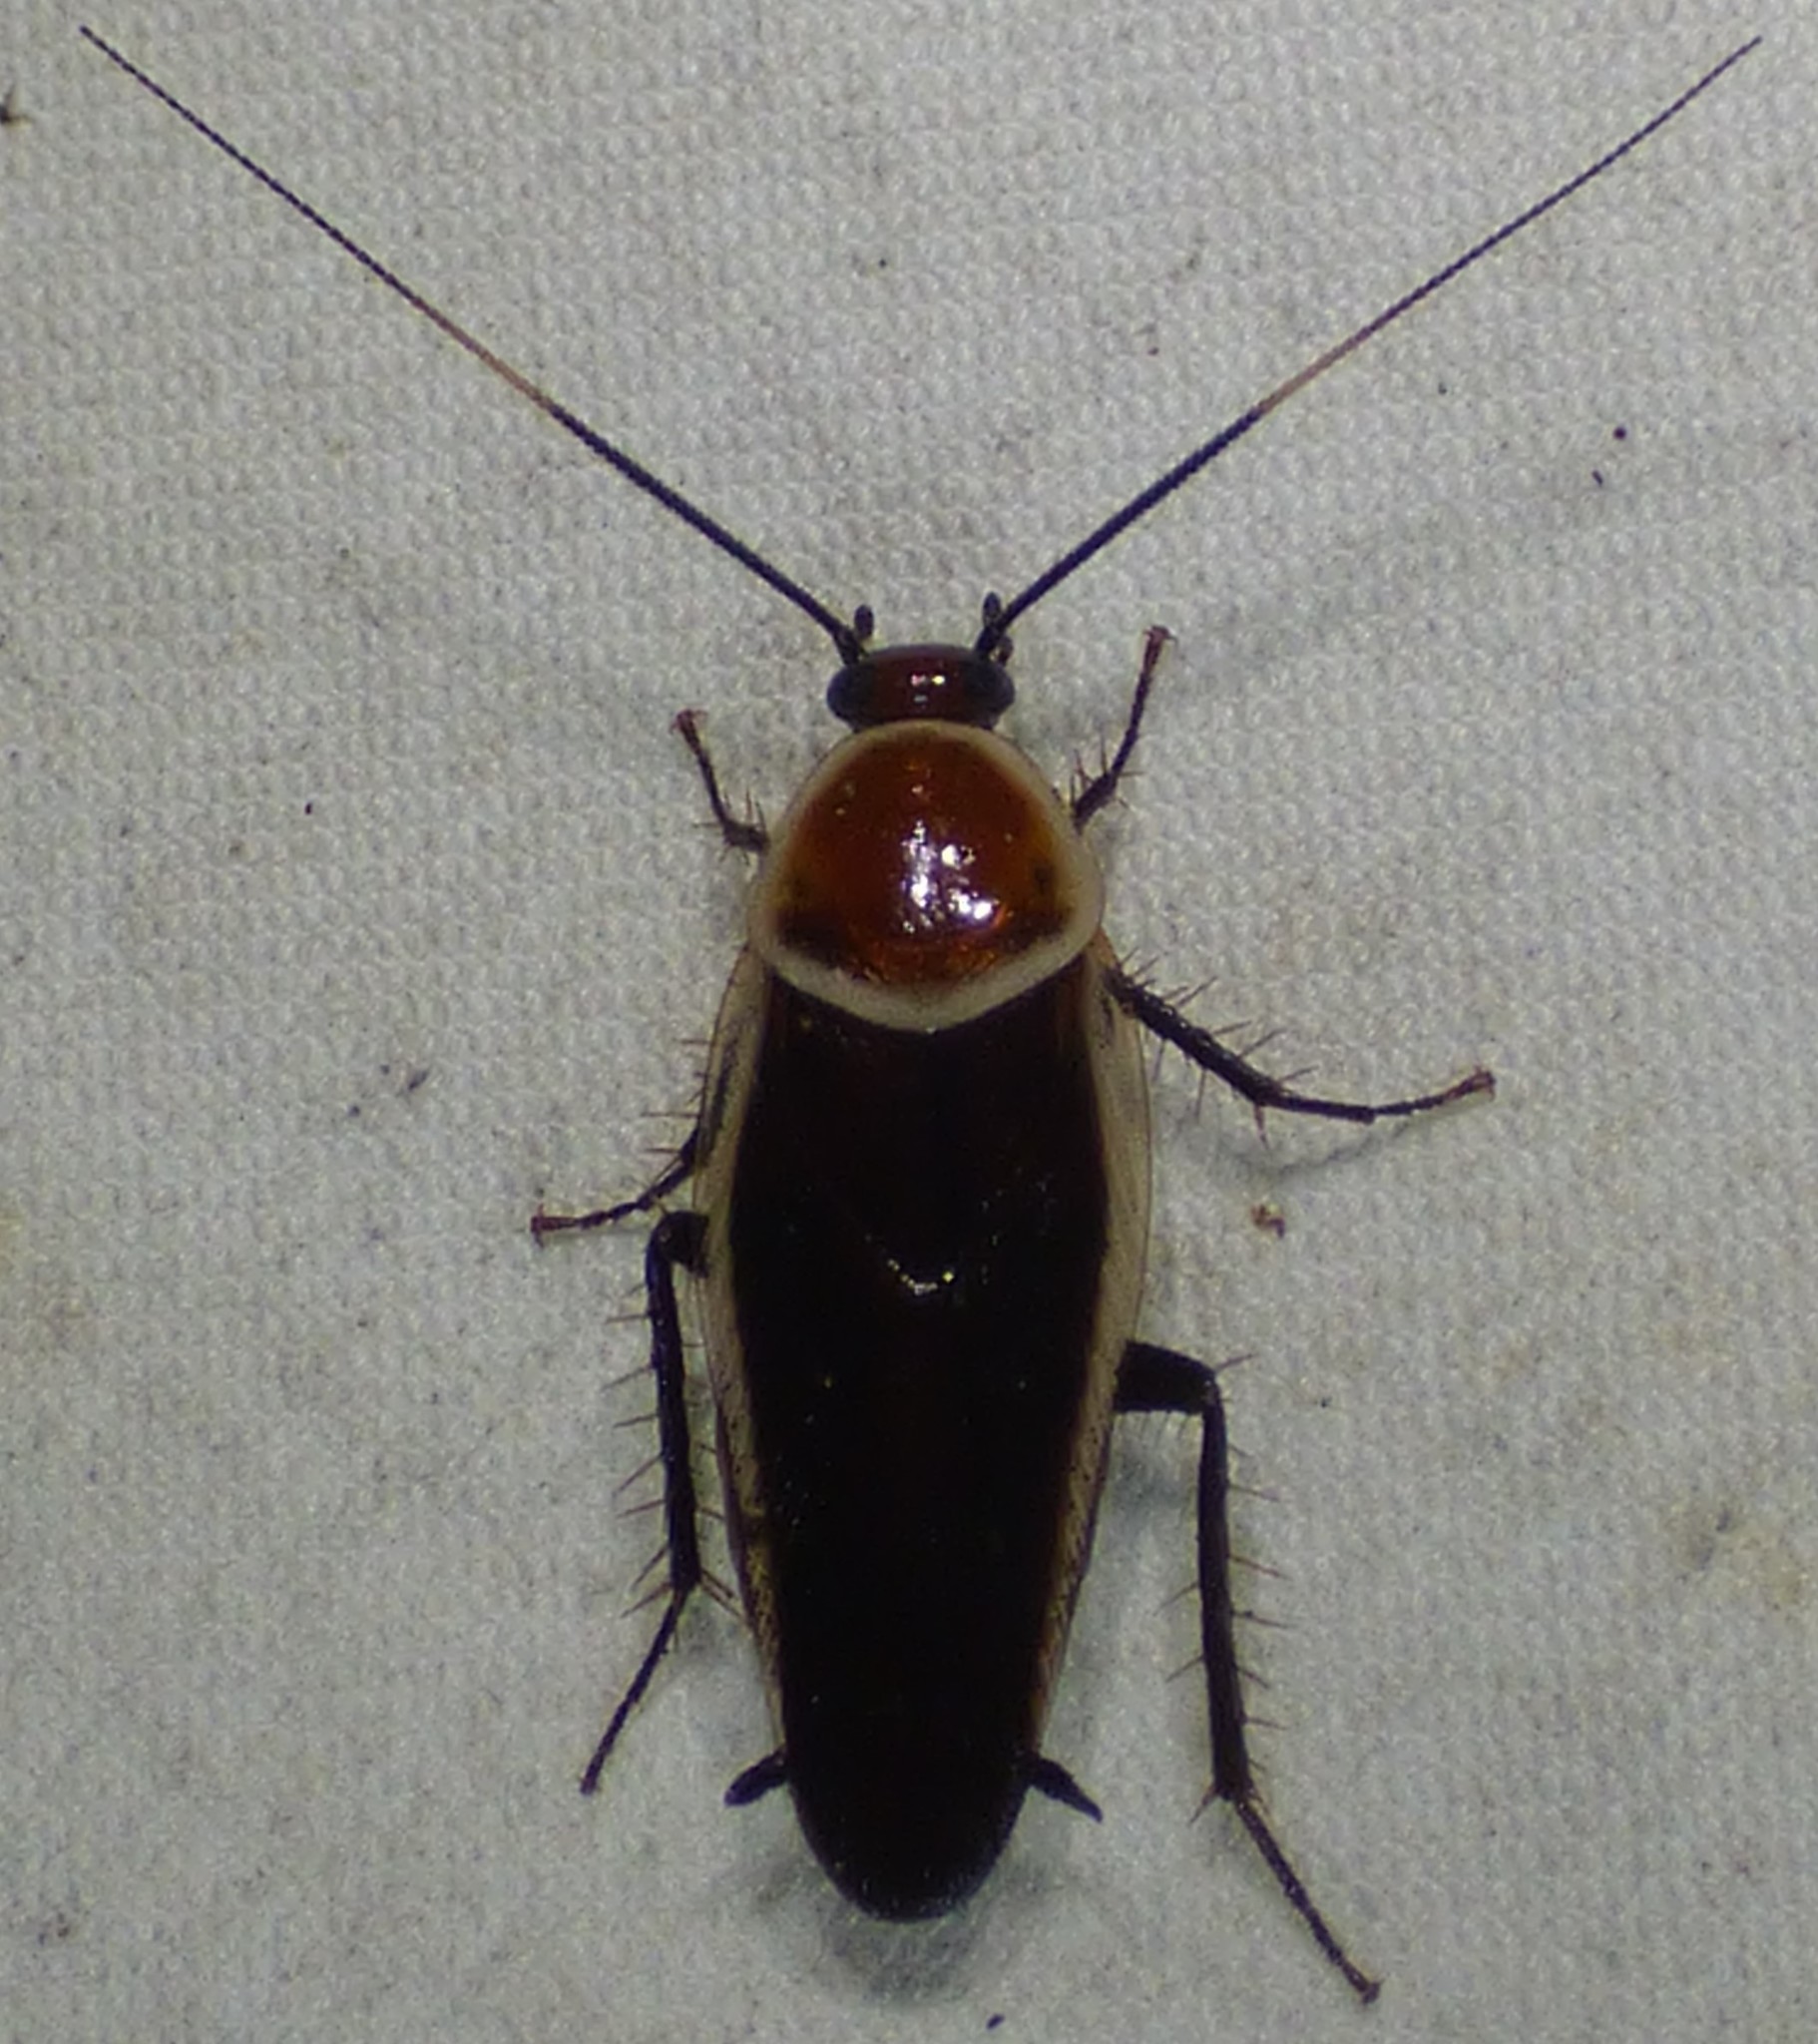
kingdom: Animalia
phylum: Arthropoda
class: Insecta
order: Blattodea
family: Ectobiidae
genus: Pseudomops
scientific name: Pseudomops septentrionalis
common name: Pale-bordered field cockroach
